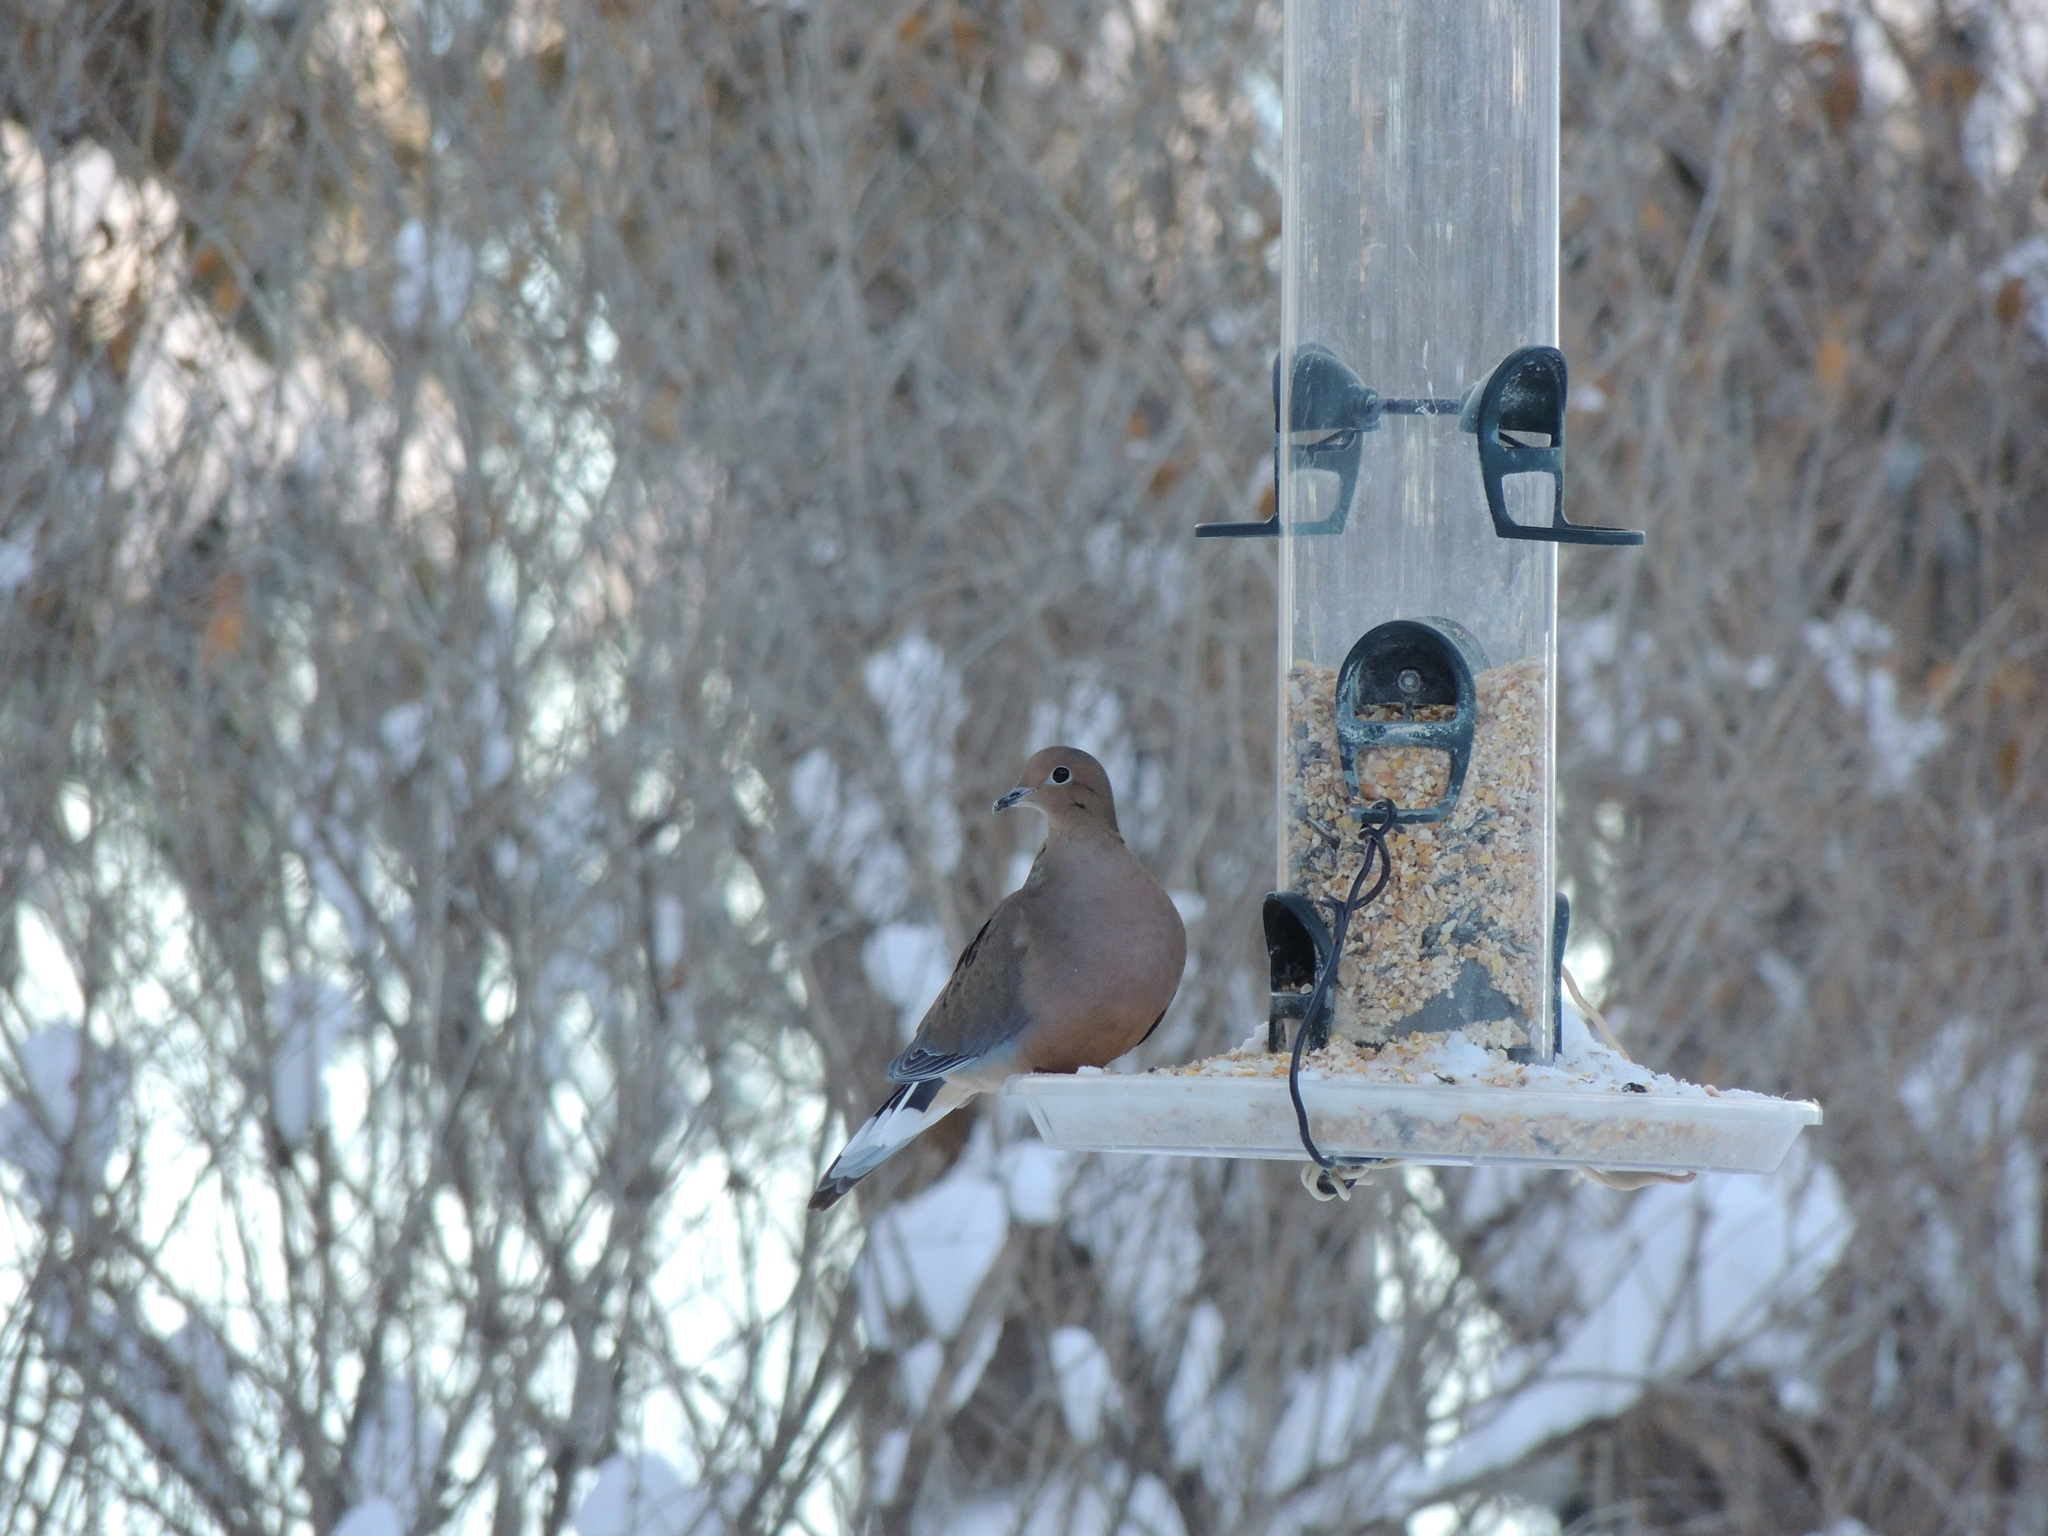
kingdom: Animalia
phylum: Chordata
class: Aves
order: Columbiformes
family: Columbidae
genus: Zenaida
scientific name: Zenaida macroura
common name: Mourning dove
